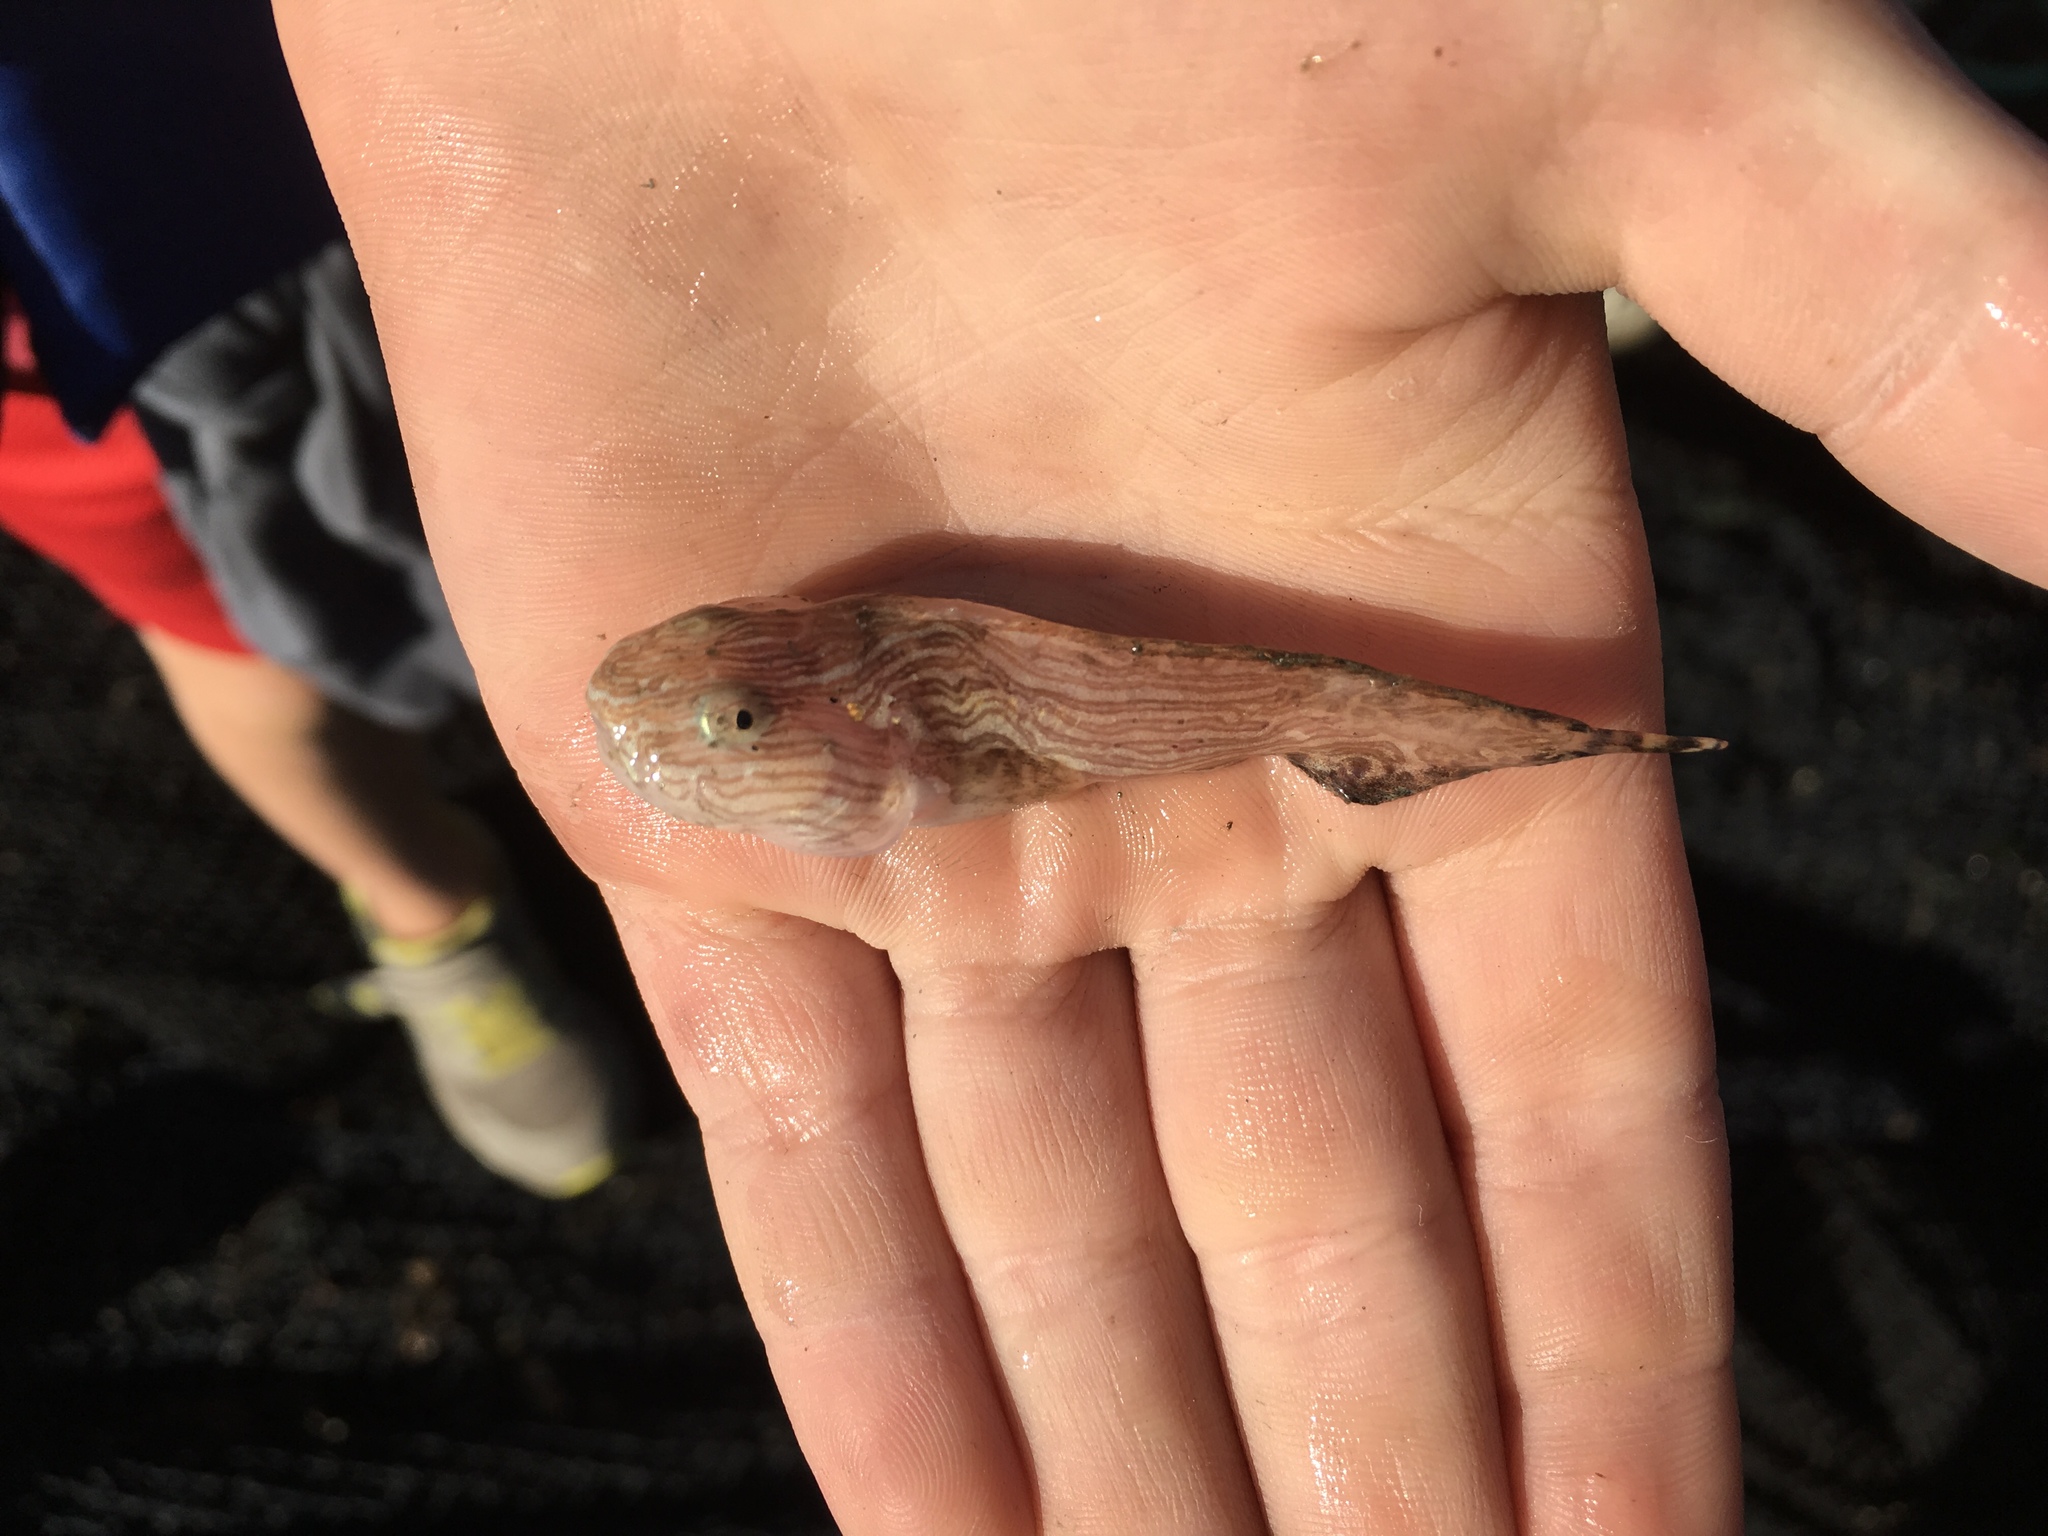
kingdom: Animalia
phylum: Chordata
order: Scorpaeniformes
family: Liparidae
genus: Liparis
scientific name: Liparis dennyi
